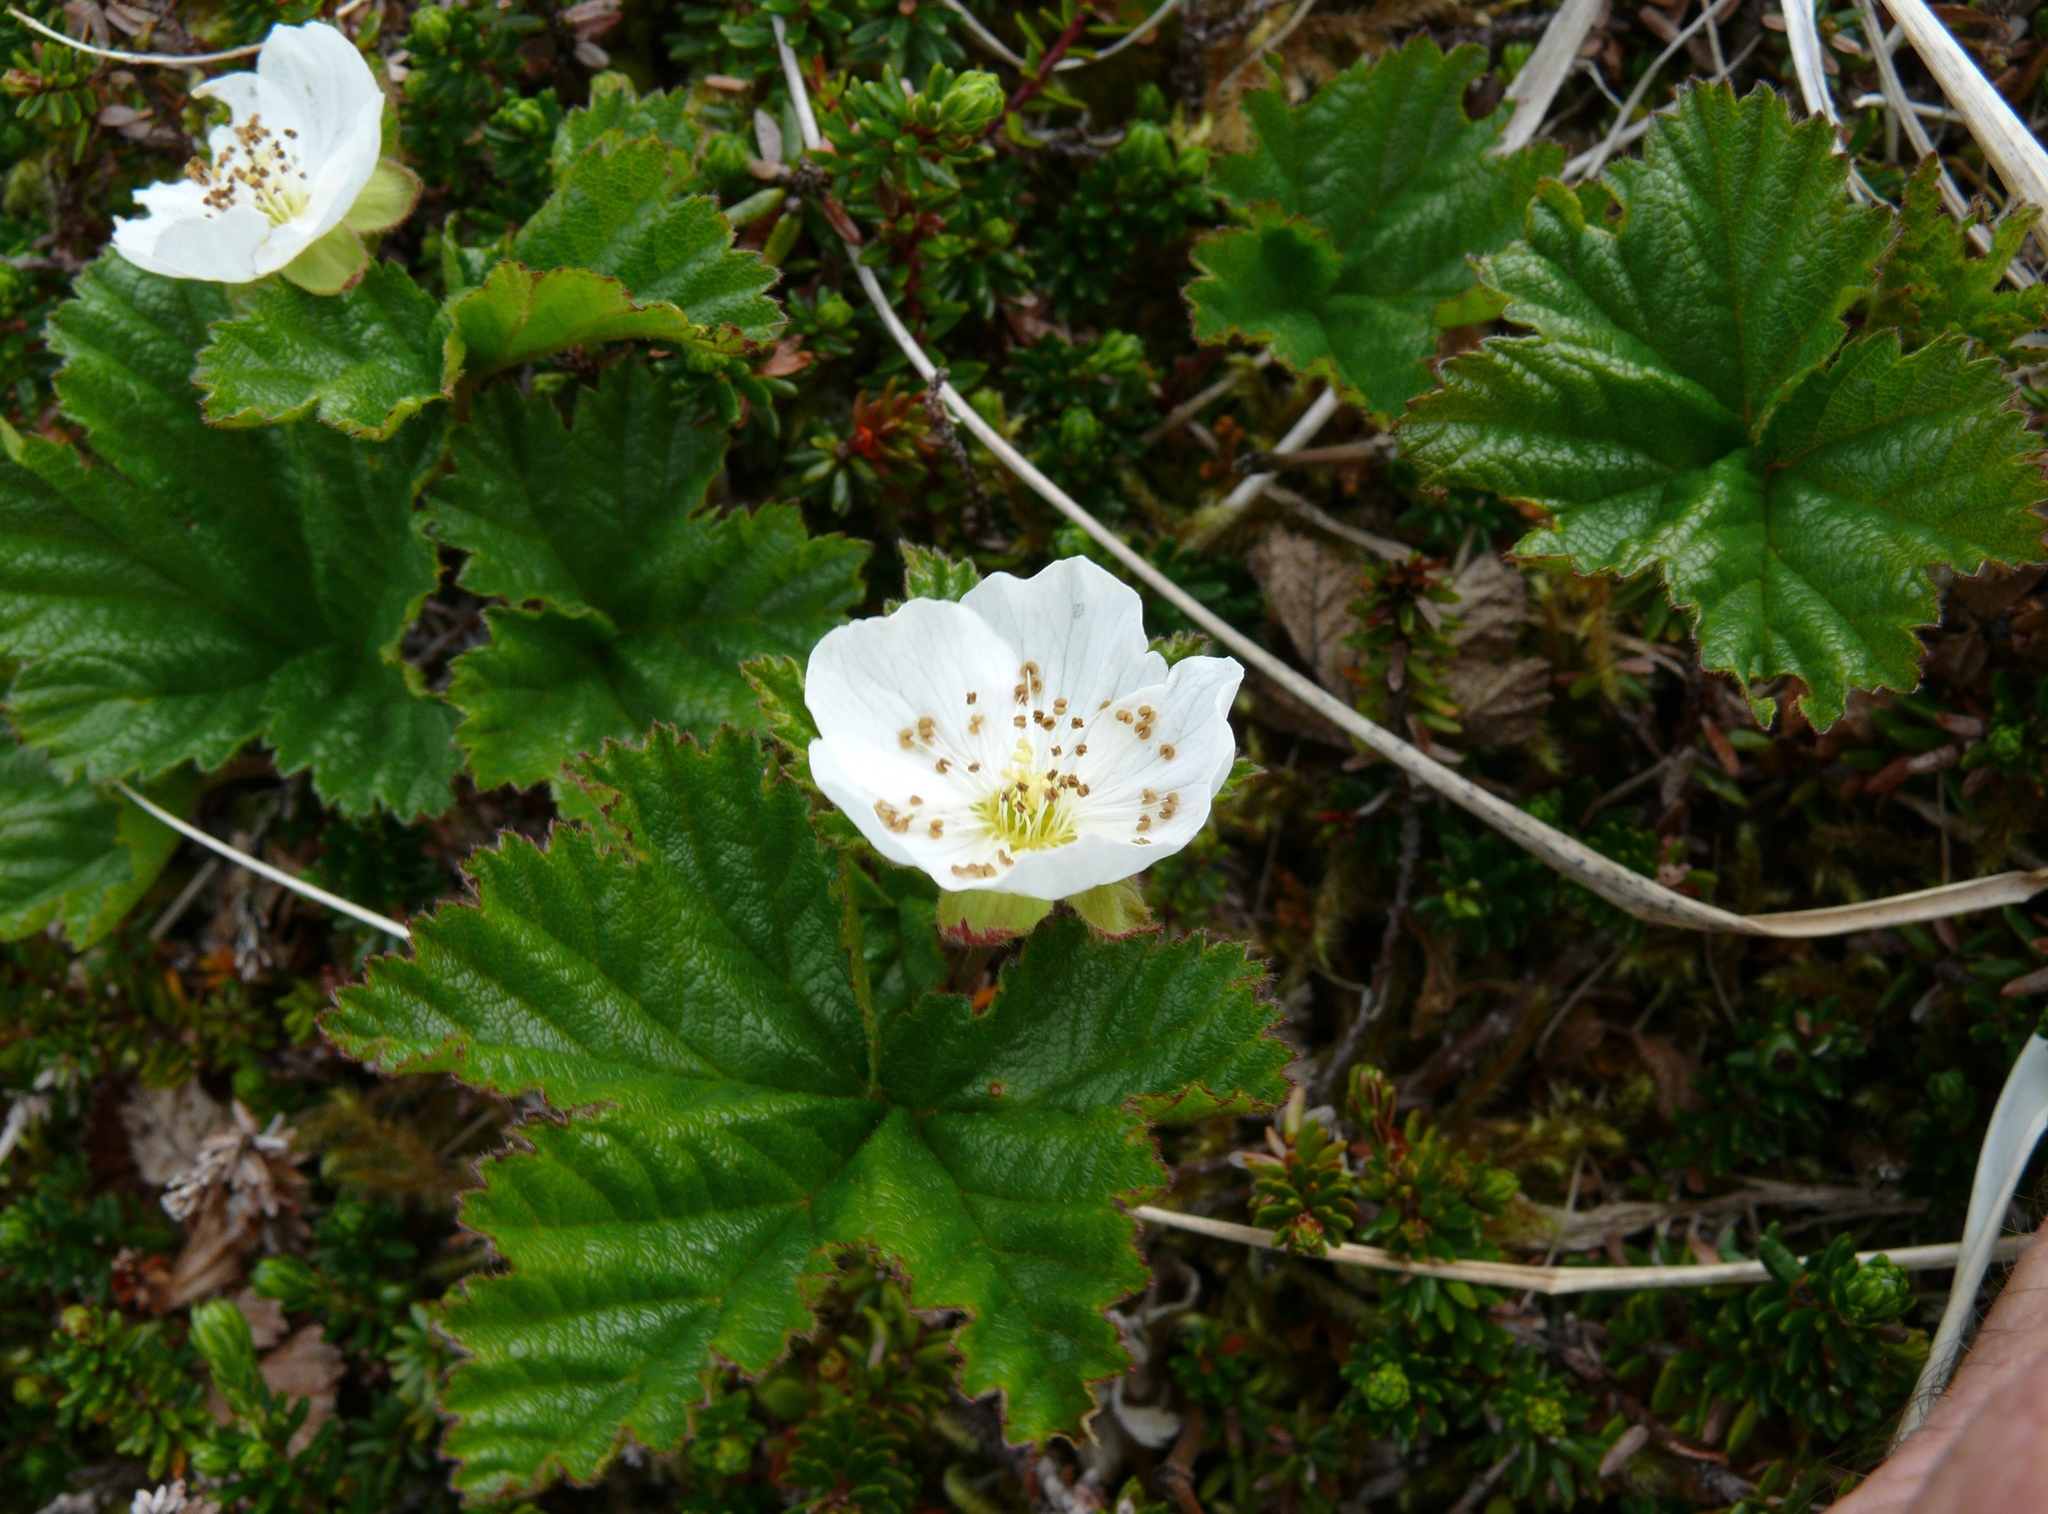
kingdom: Plantae
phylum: Tracheophyta
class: Magnoliopsida
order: Rosales
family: Rosaceae
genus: Rubus
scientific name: Rubus chamaemorus
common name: Cloudberry
